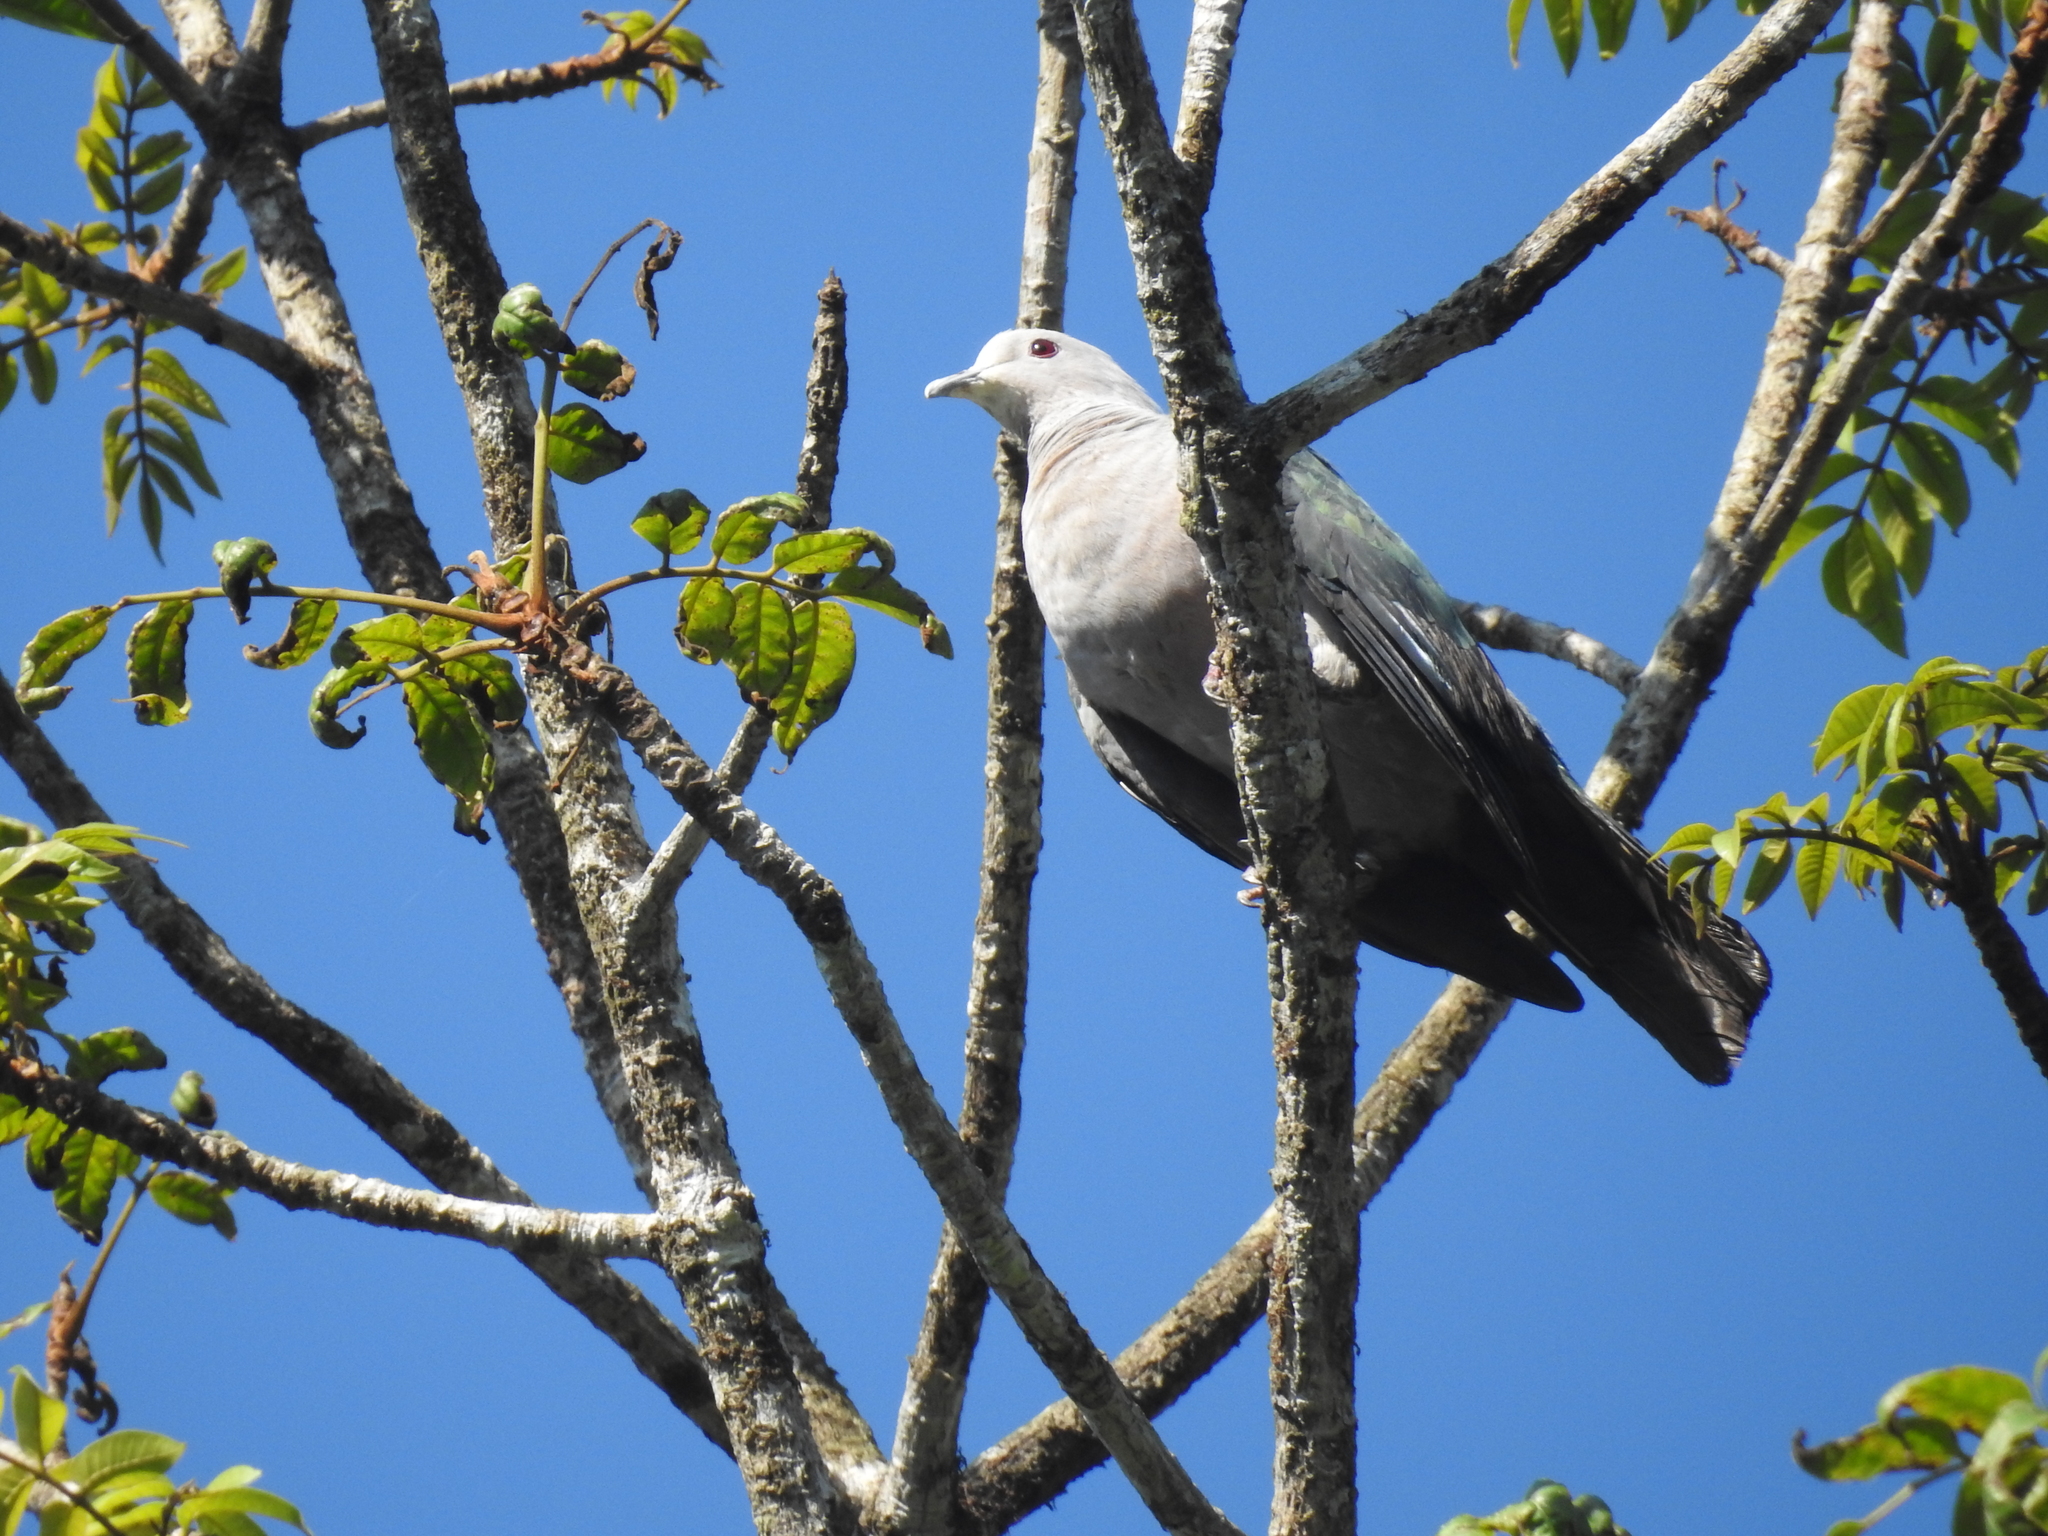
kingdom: Animalia
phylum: Chordata
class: Aves
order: Columbiformes
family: Columbidae
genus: Ducula
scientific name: Ducula aenea
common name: Green imperial pigeon
